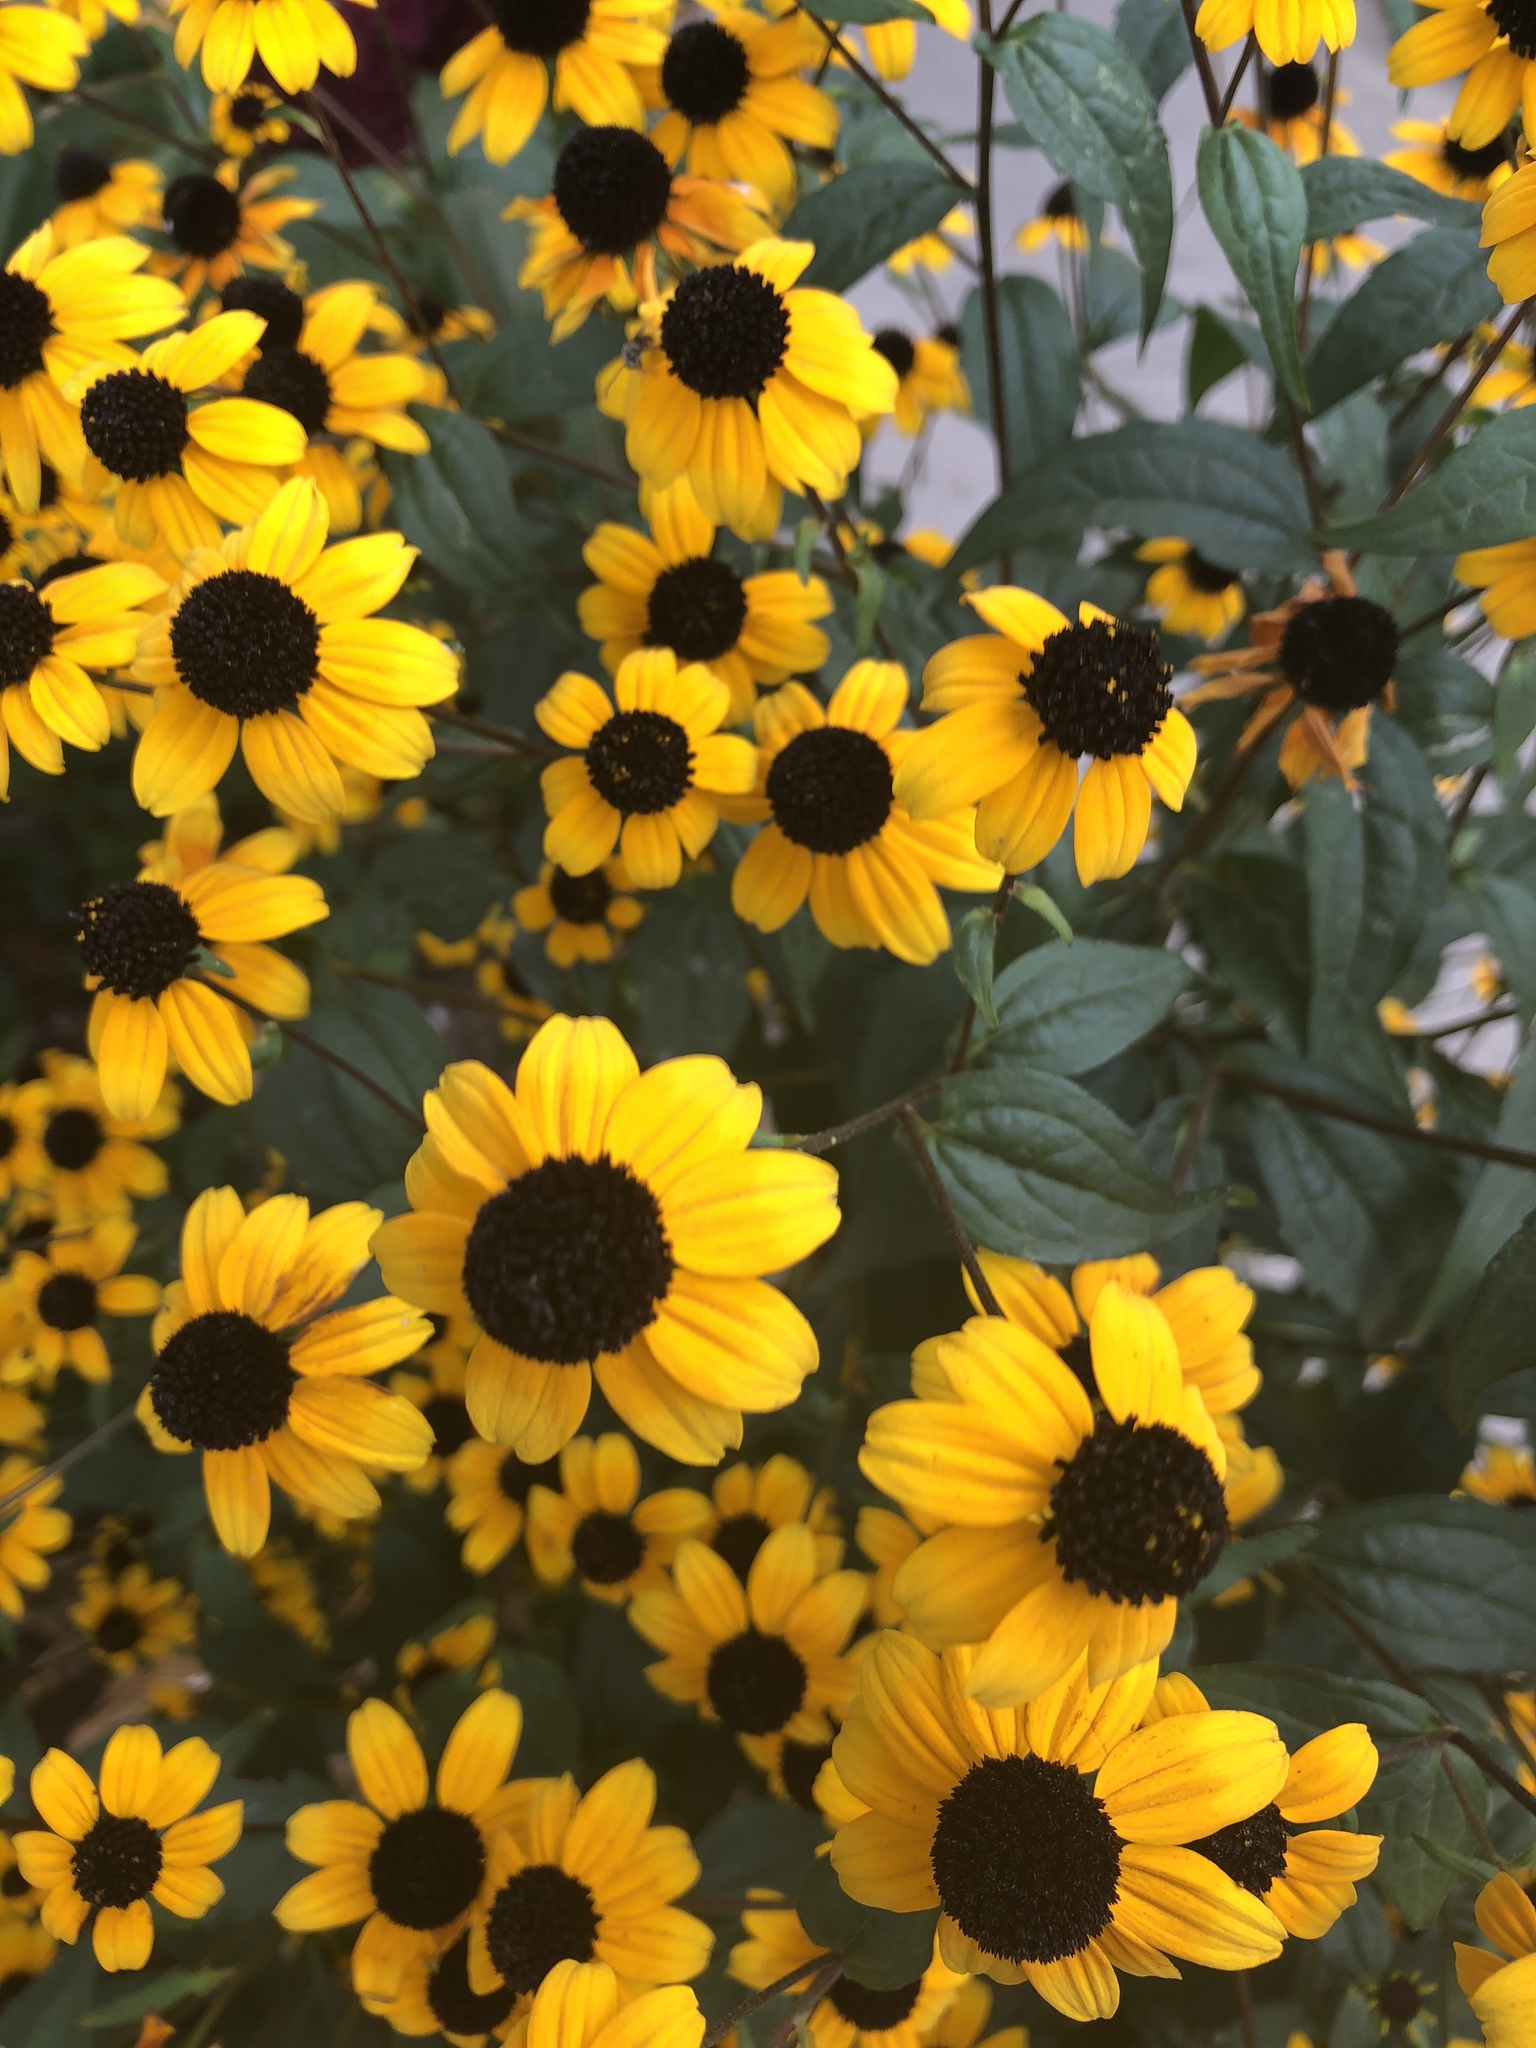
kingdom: Plantae
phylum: Tracheophyta
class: Magnoliopsida
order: Asterales
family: Asteraceae
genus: Rudbeckia
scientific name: Rudbeckia triloba
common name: Thin-leaved coneflower
